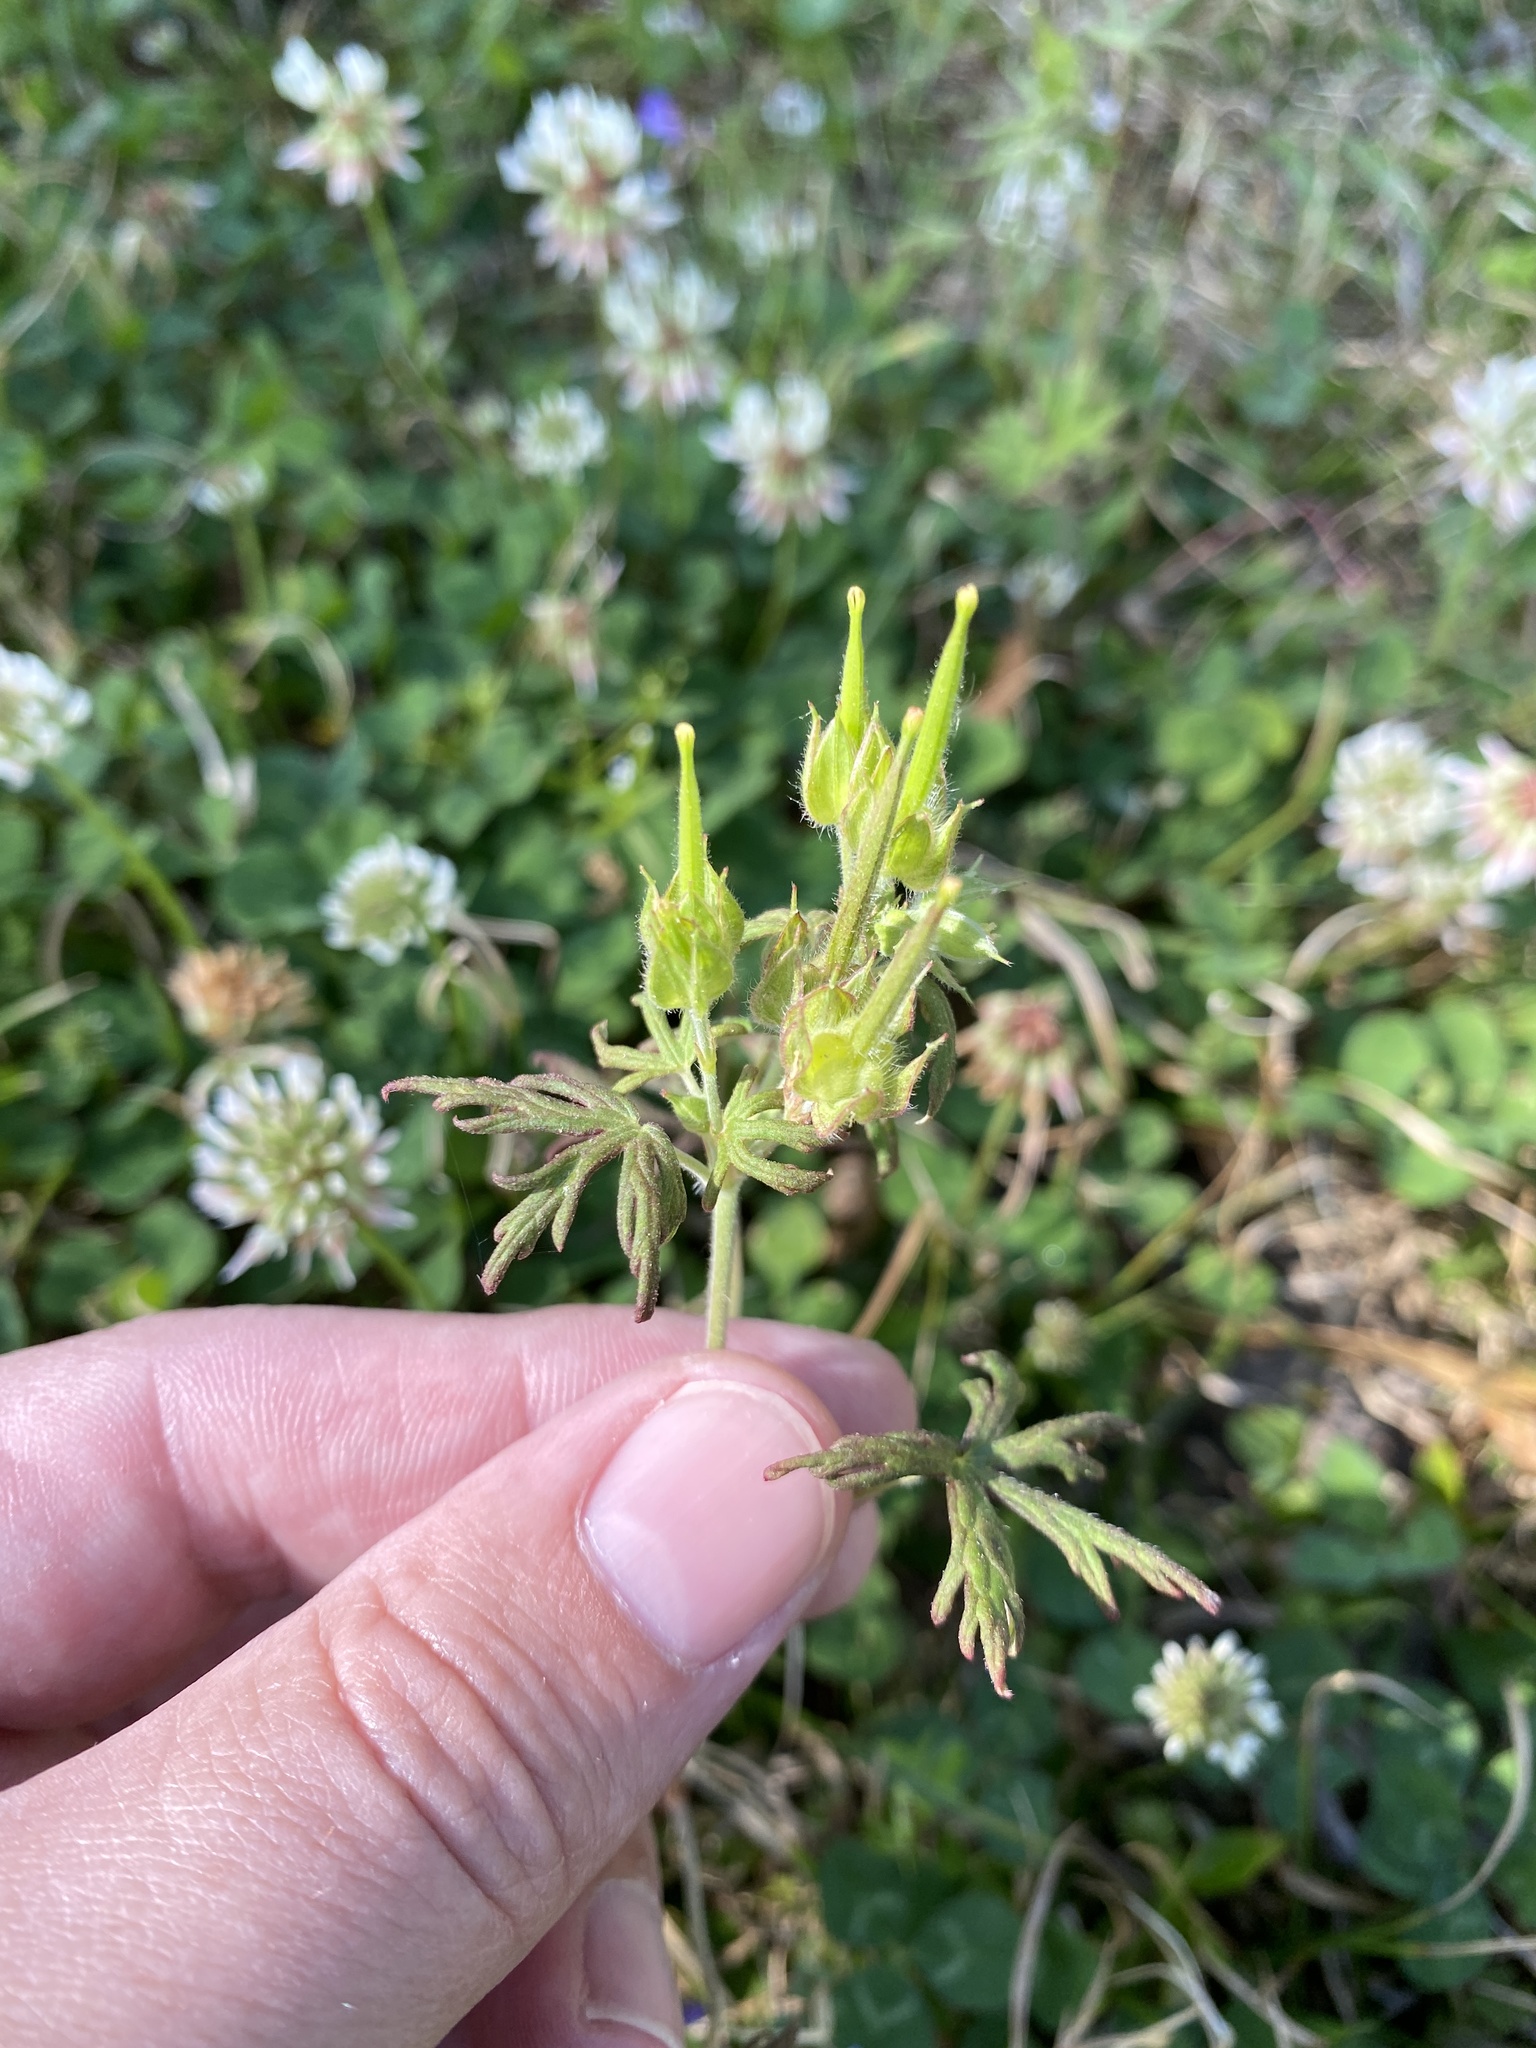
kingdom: Plantae
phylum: Tracheophyta
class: Magnoliopsida
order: Geraniales
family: Geraniaceae
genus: Geranium
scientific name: Geranium carolinianum
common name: Carolina crane's-bill
